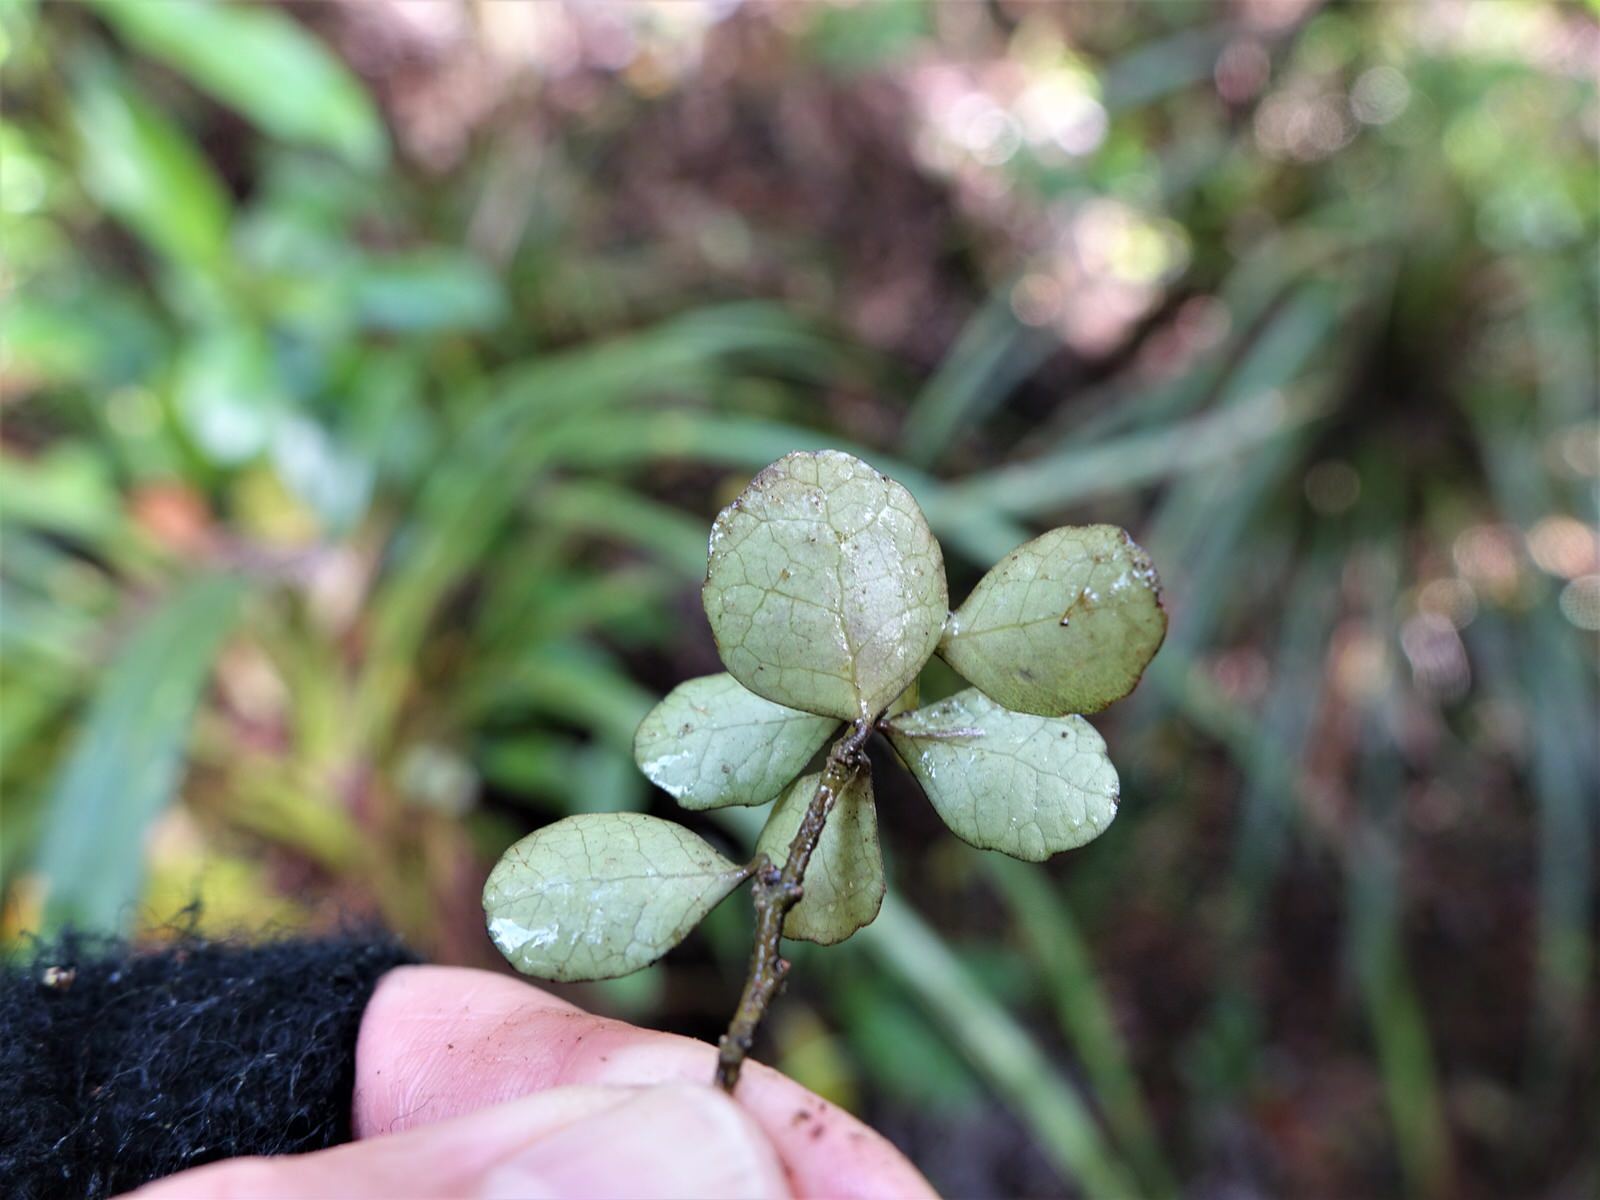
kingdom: Plantae
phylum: Tracheophyta
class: Magnoliopsida
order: Malpighiales
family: Violaceae
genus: Melicytus
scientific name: Melicytus micranthus
